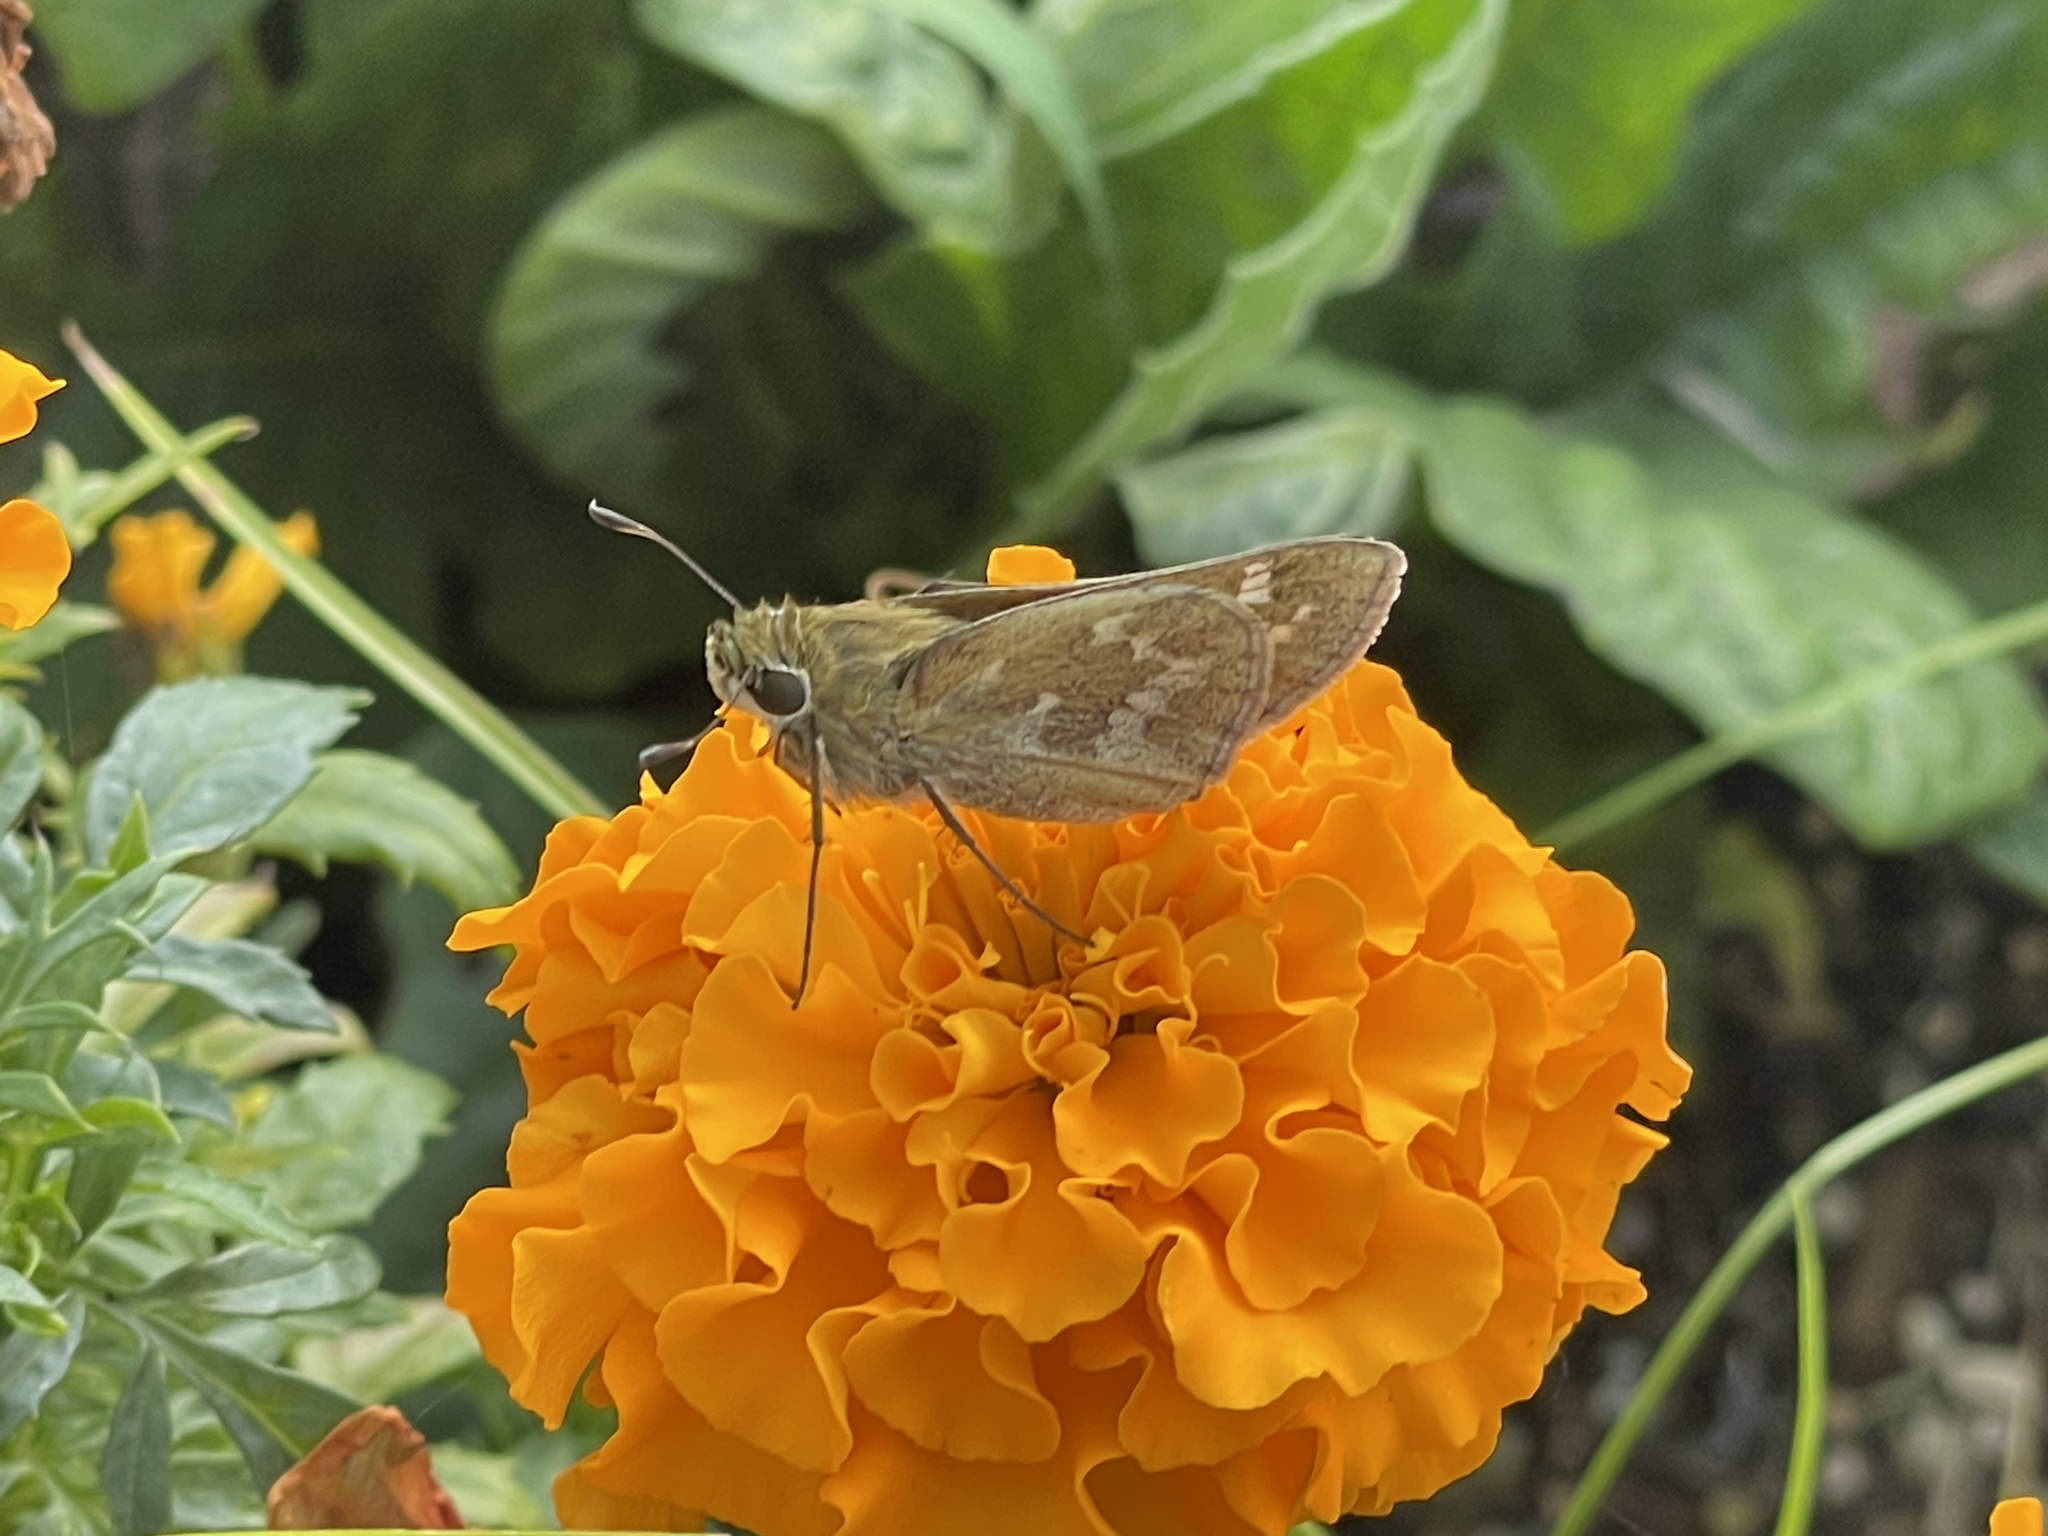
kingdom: Animalia
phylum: Arthropoda
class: Insecta
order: Lepidoptera
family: Hesperiidae
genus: Atalopedes
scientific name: Atalopedes
